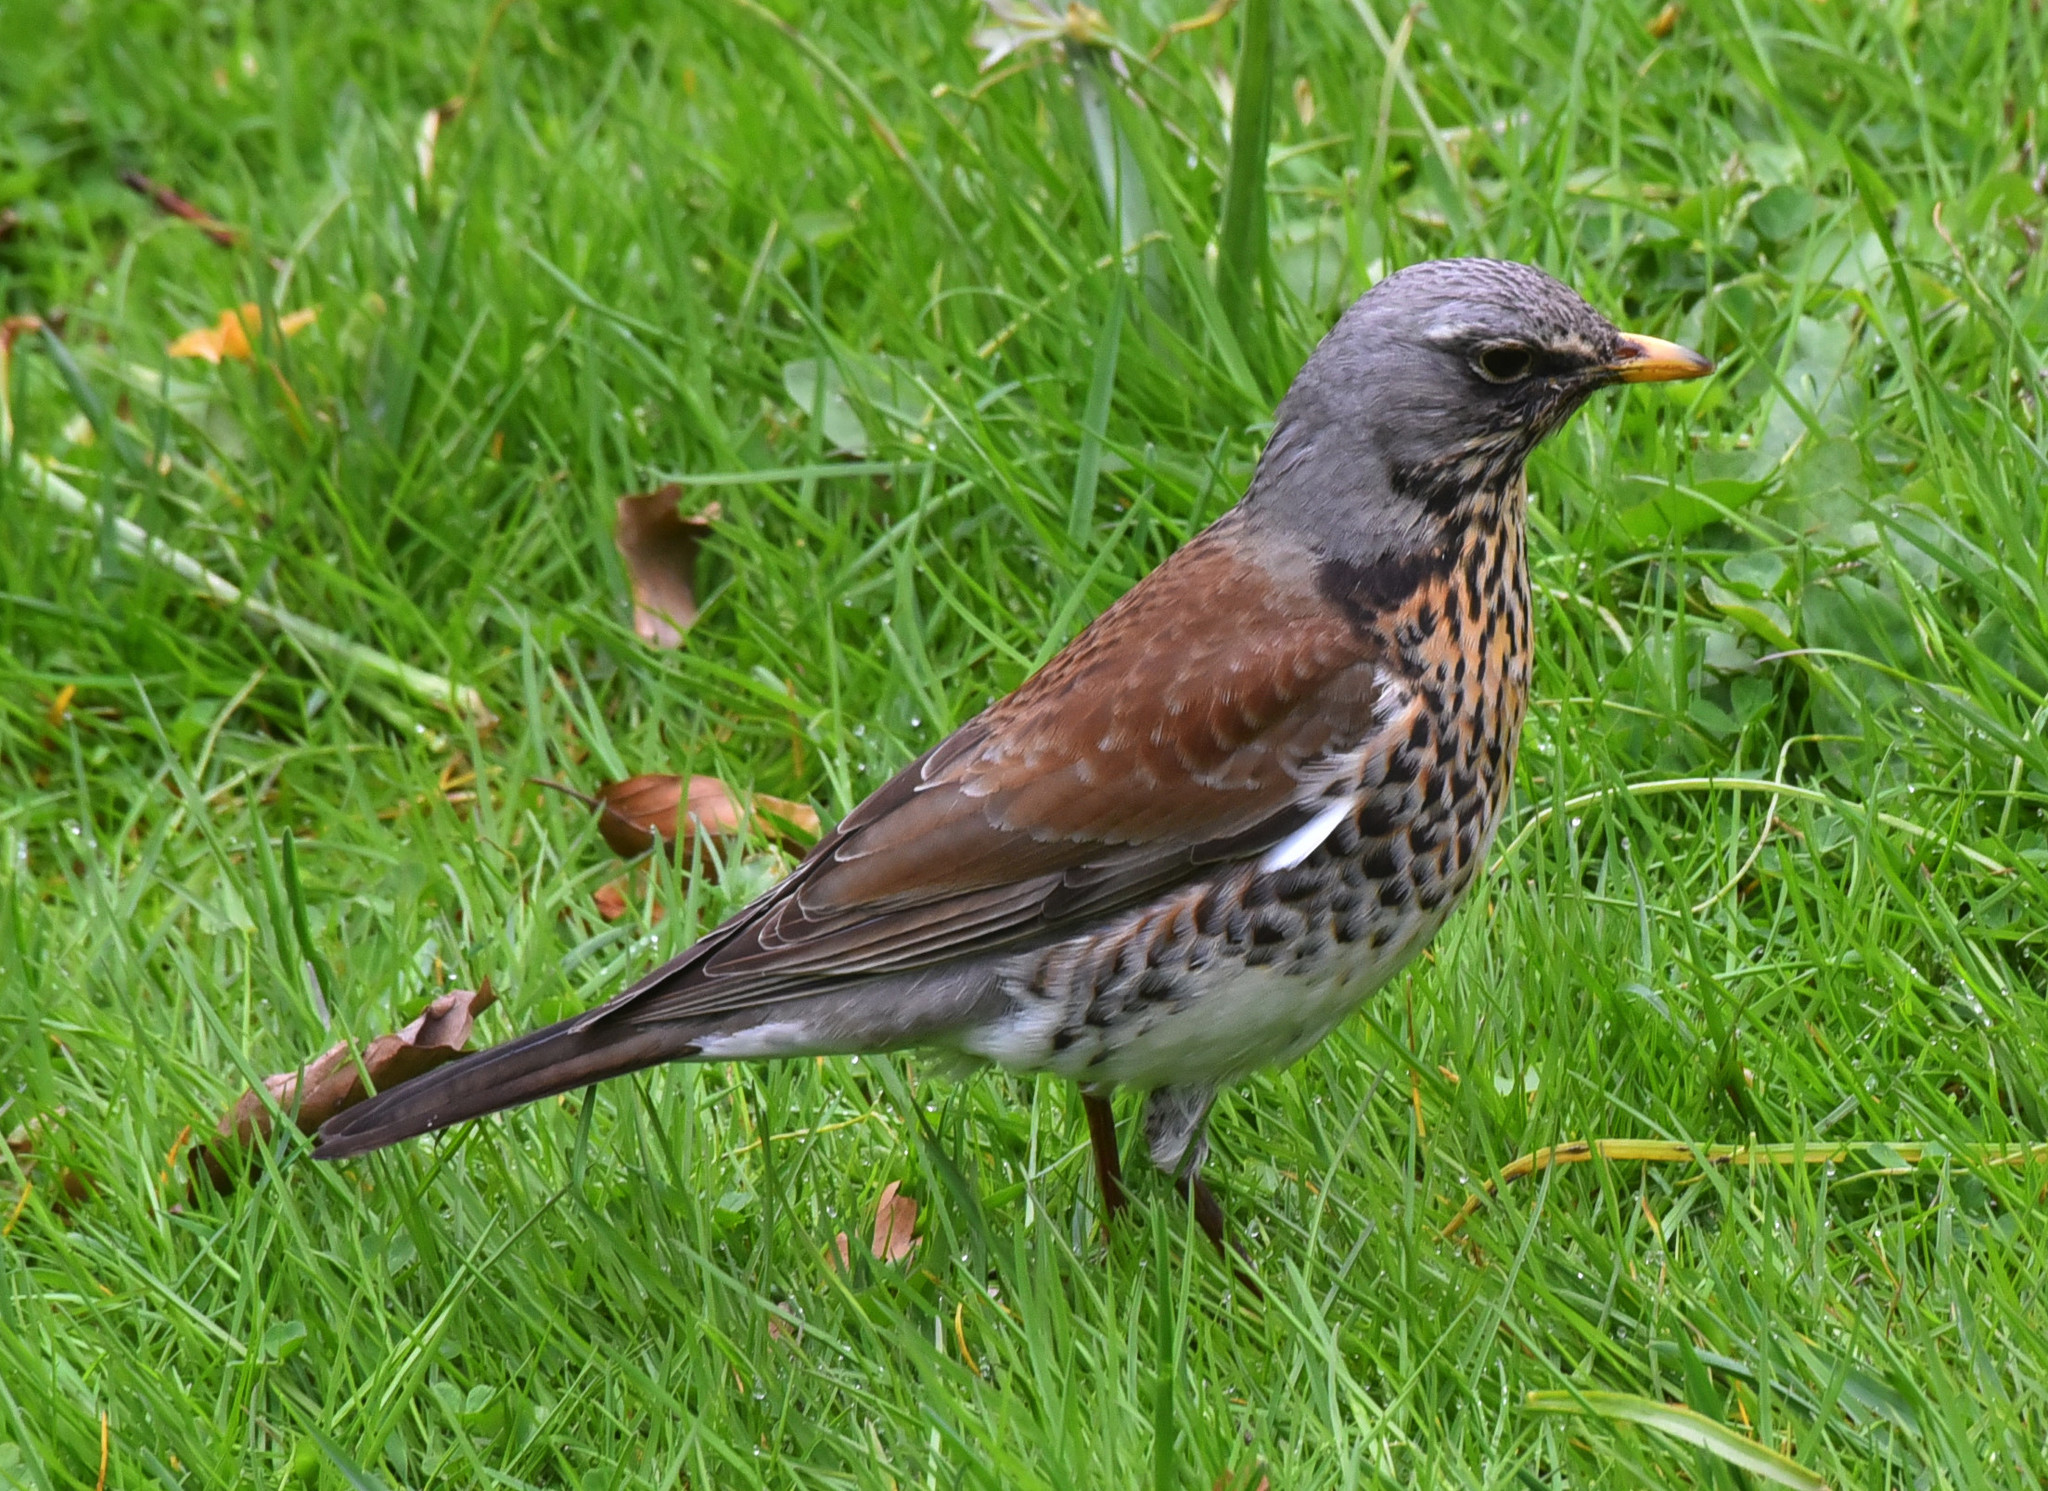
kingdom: Animalia
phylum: Chordata
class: Aves
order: Passeriformes
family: Turdidae
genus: Turdus
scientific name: Turdus pilaris
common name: Fieldfare
